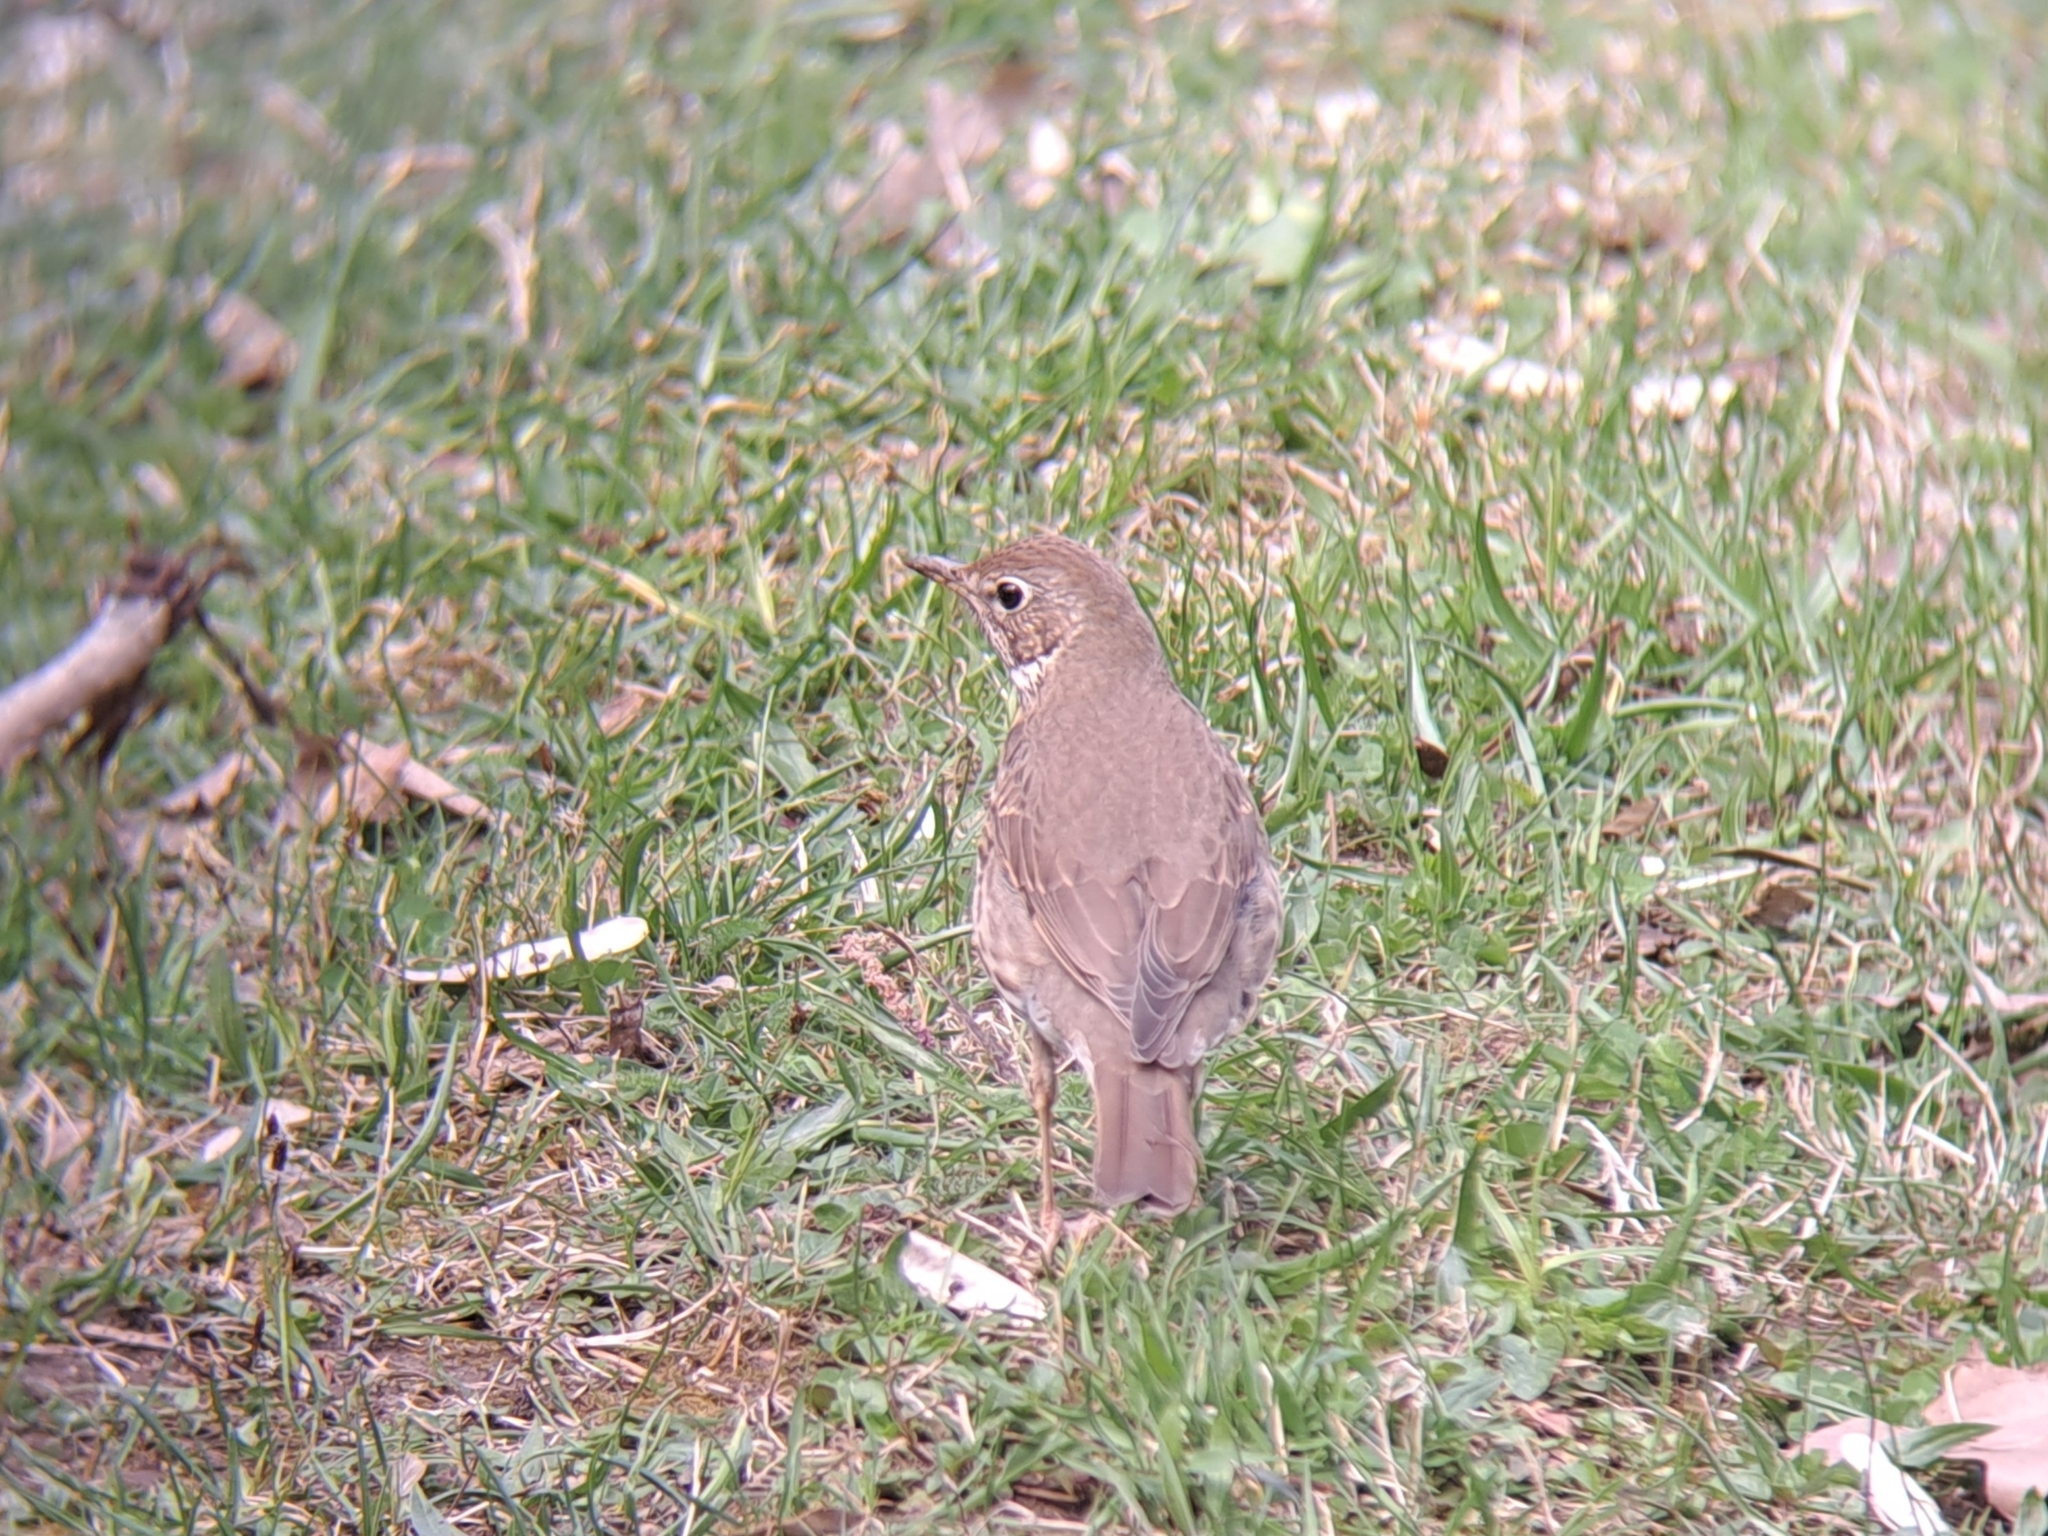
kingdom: Animalia
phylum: Chordata
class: Aves
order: Passeriformes
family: Turdidae
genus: Turdus
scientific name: Turdus philomelos
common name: Song thrush
